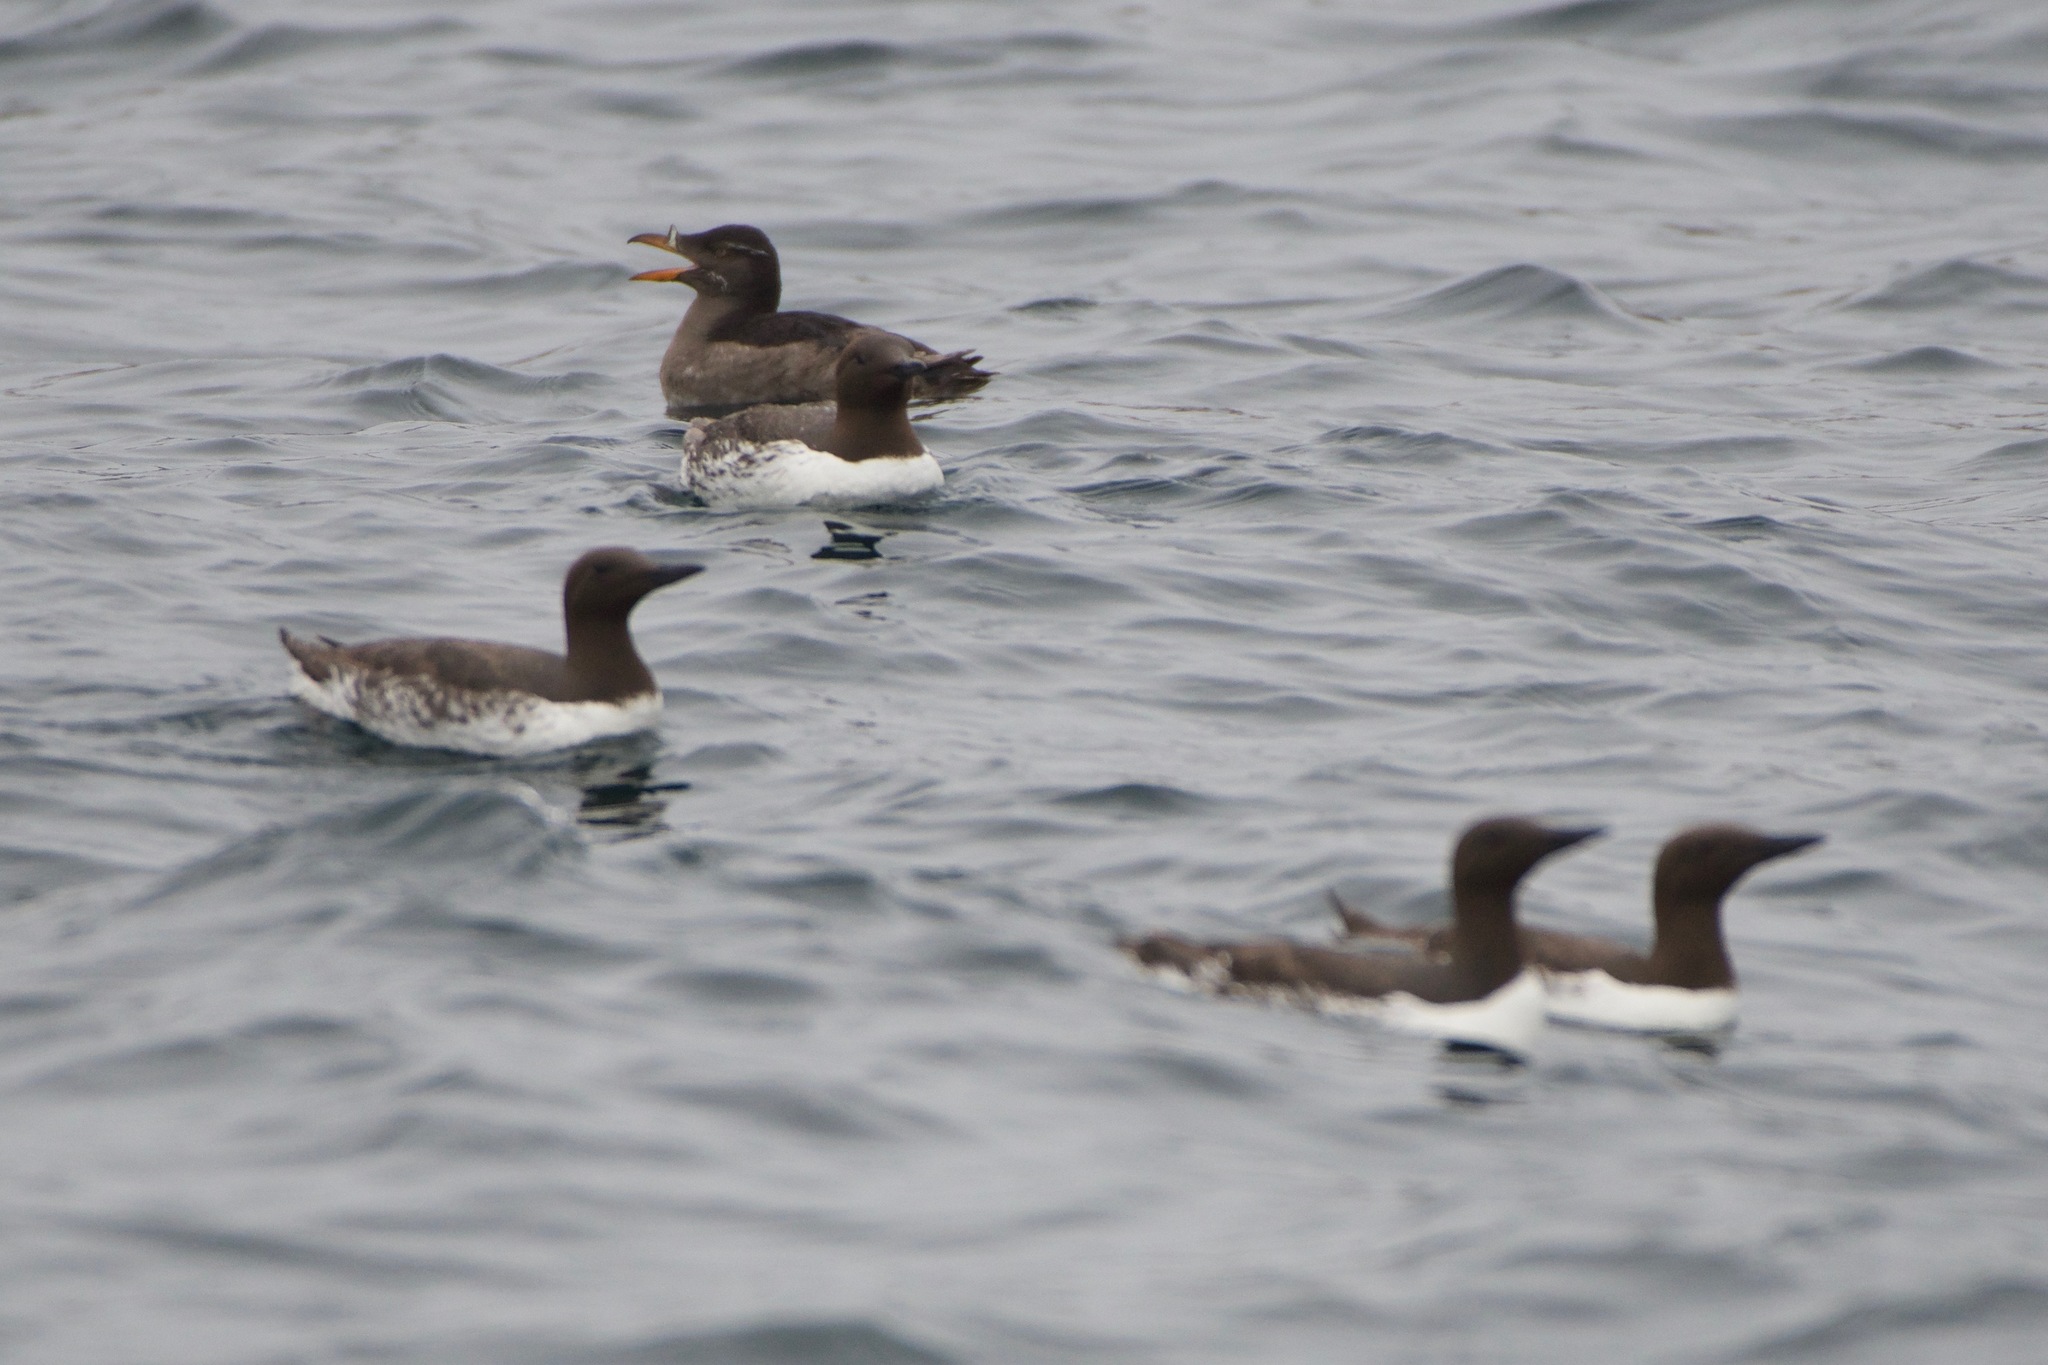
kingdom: Animalia
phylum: Chordata
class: Aves
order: Charadriiformes
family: Alcidae
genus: Uria
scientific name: Uria aalge
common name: Common murre
